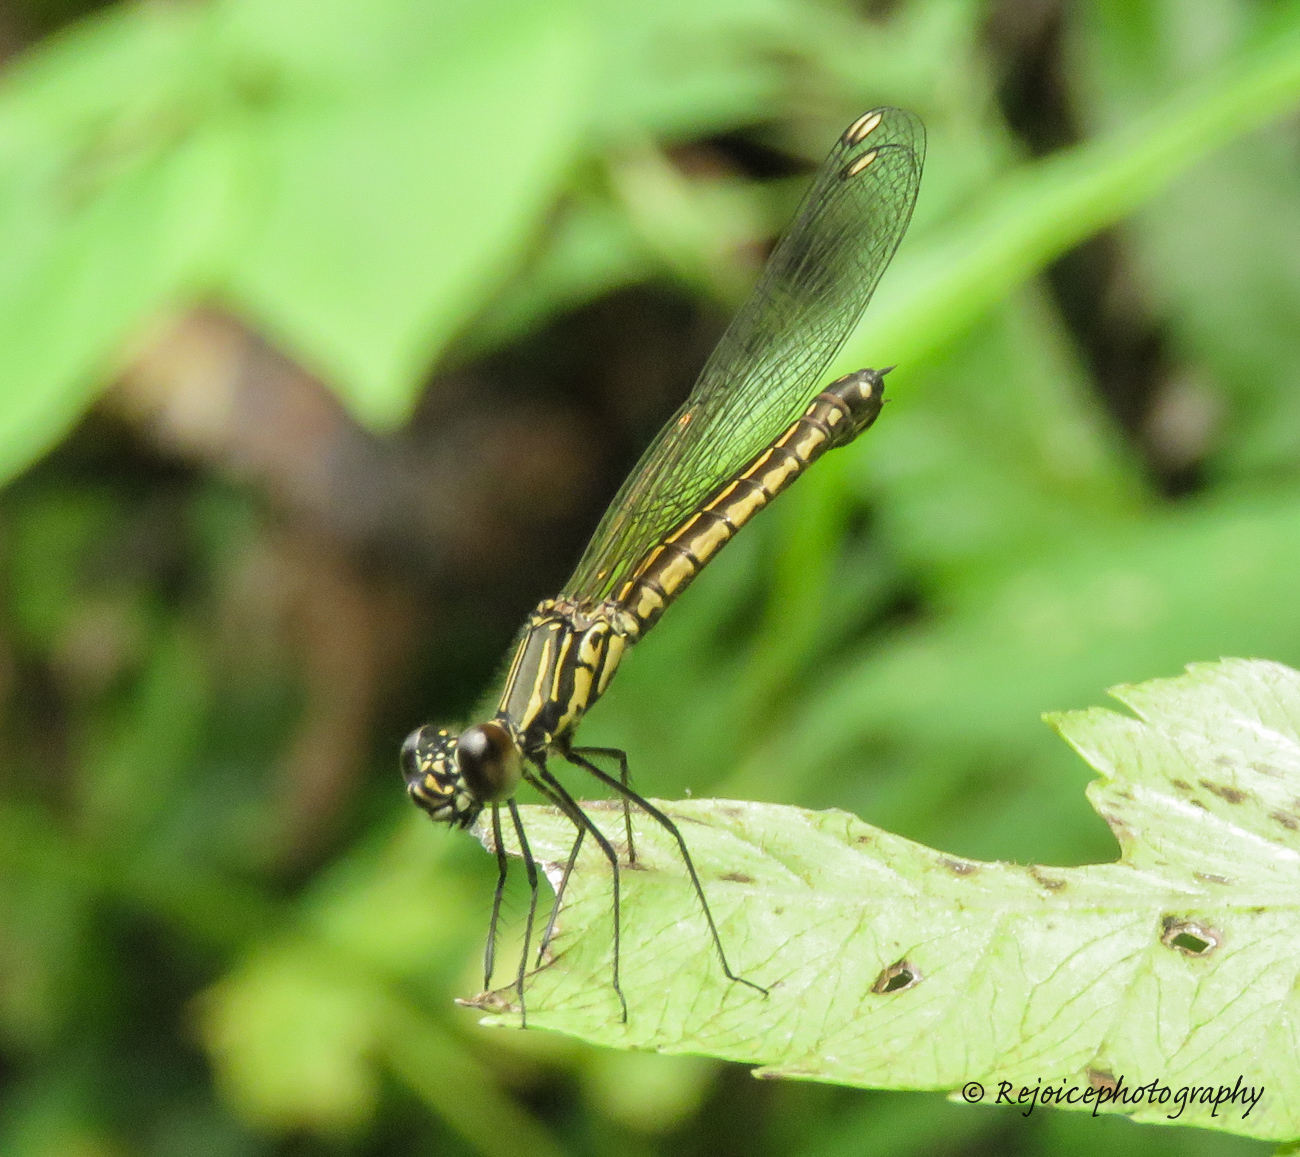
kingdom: Animalia
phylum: Arthropoda
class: Insecta
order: Odonata
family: Chlorocyphidae
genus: Libellago
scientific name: Libellago lineata
